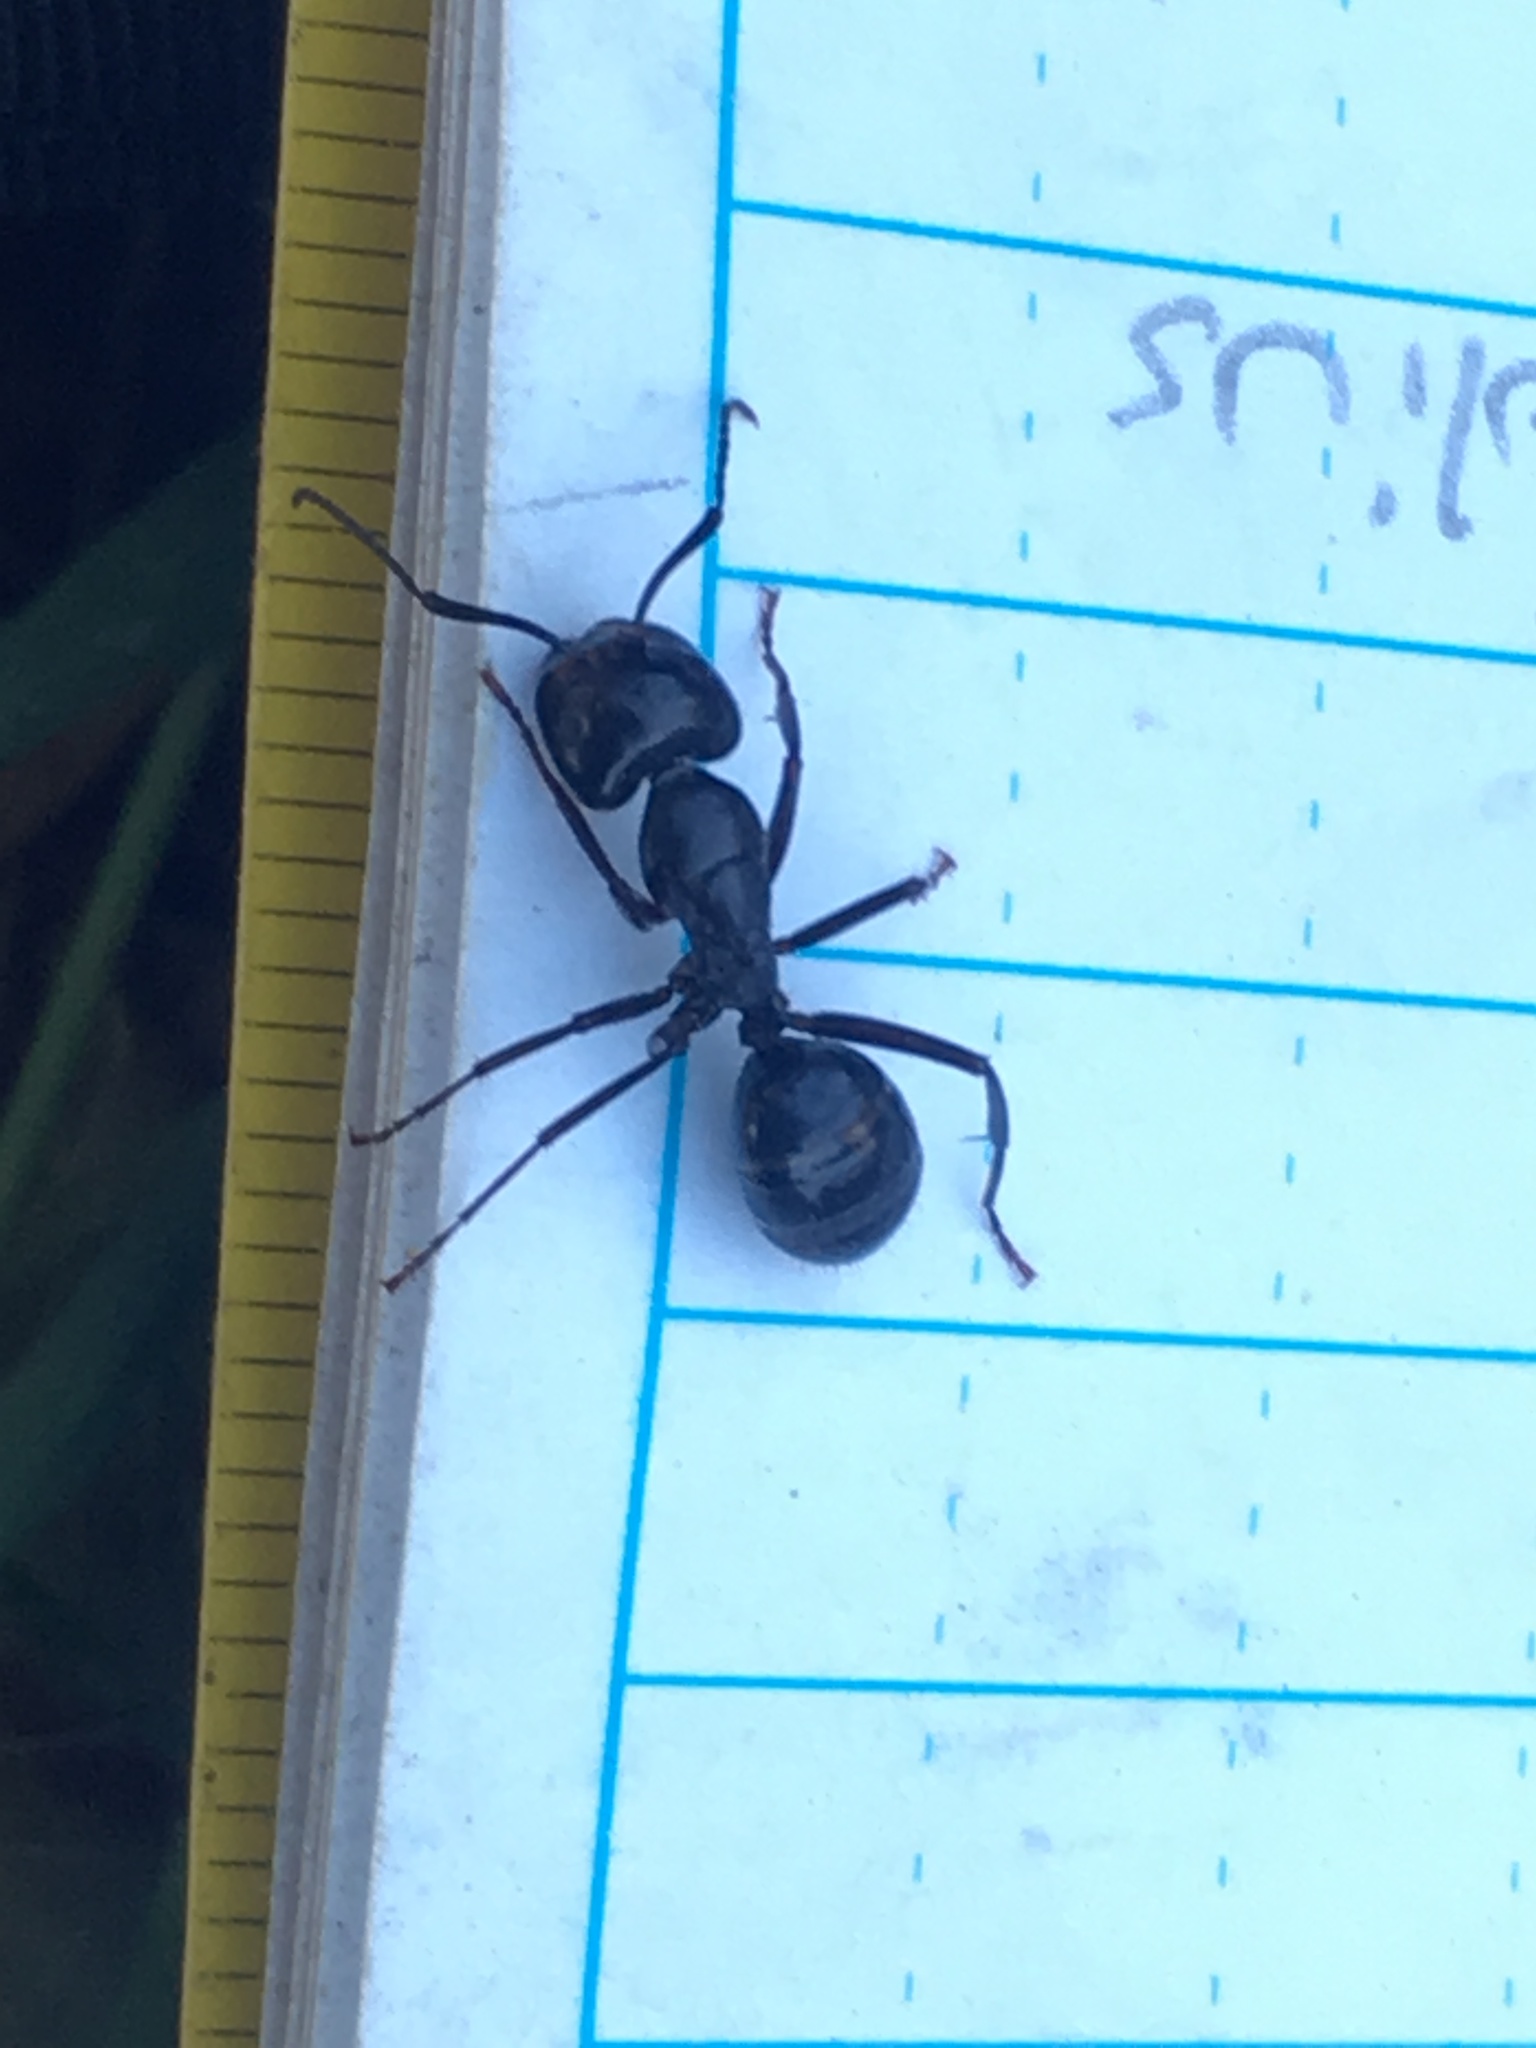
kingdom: Animalia
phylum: Arthropoda
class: Insecta
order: Hymenoptera
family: Formicidae
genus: Camponotus
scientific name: Camponotus laevigatus
